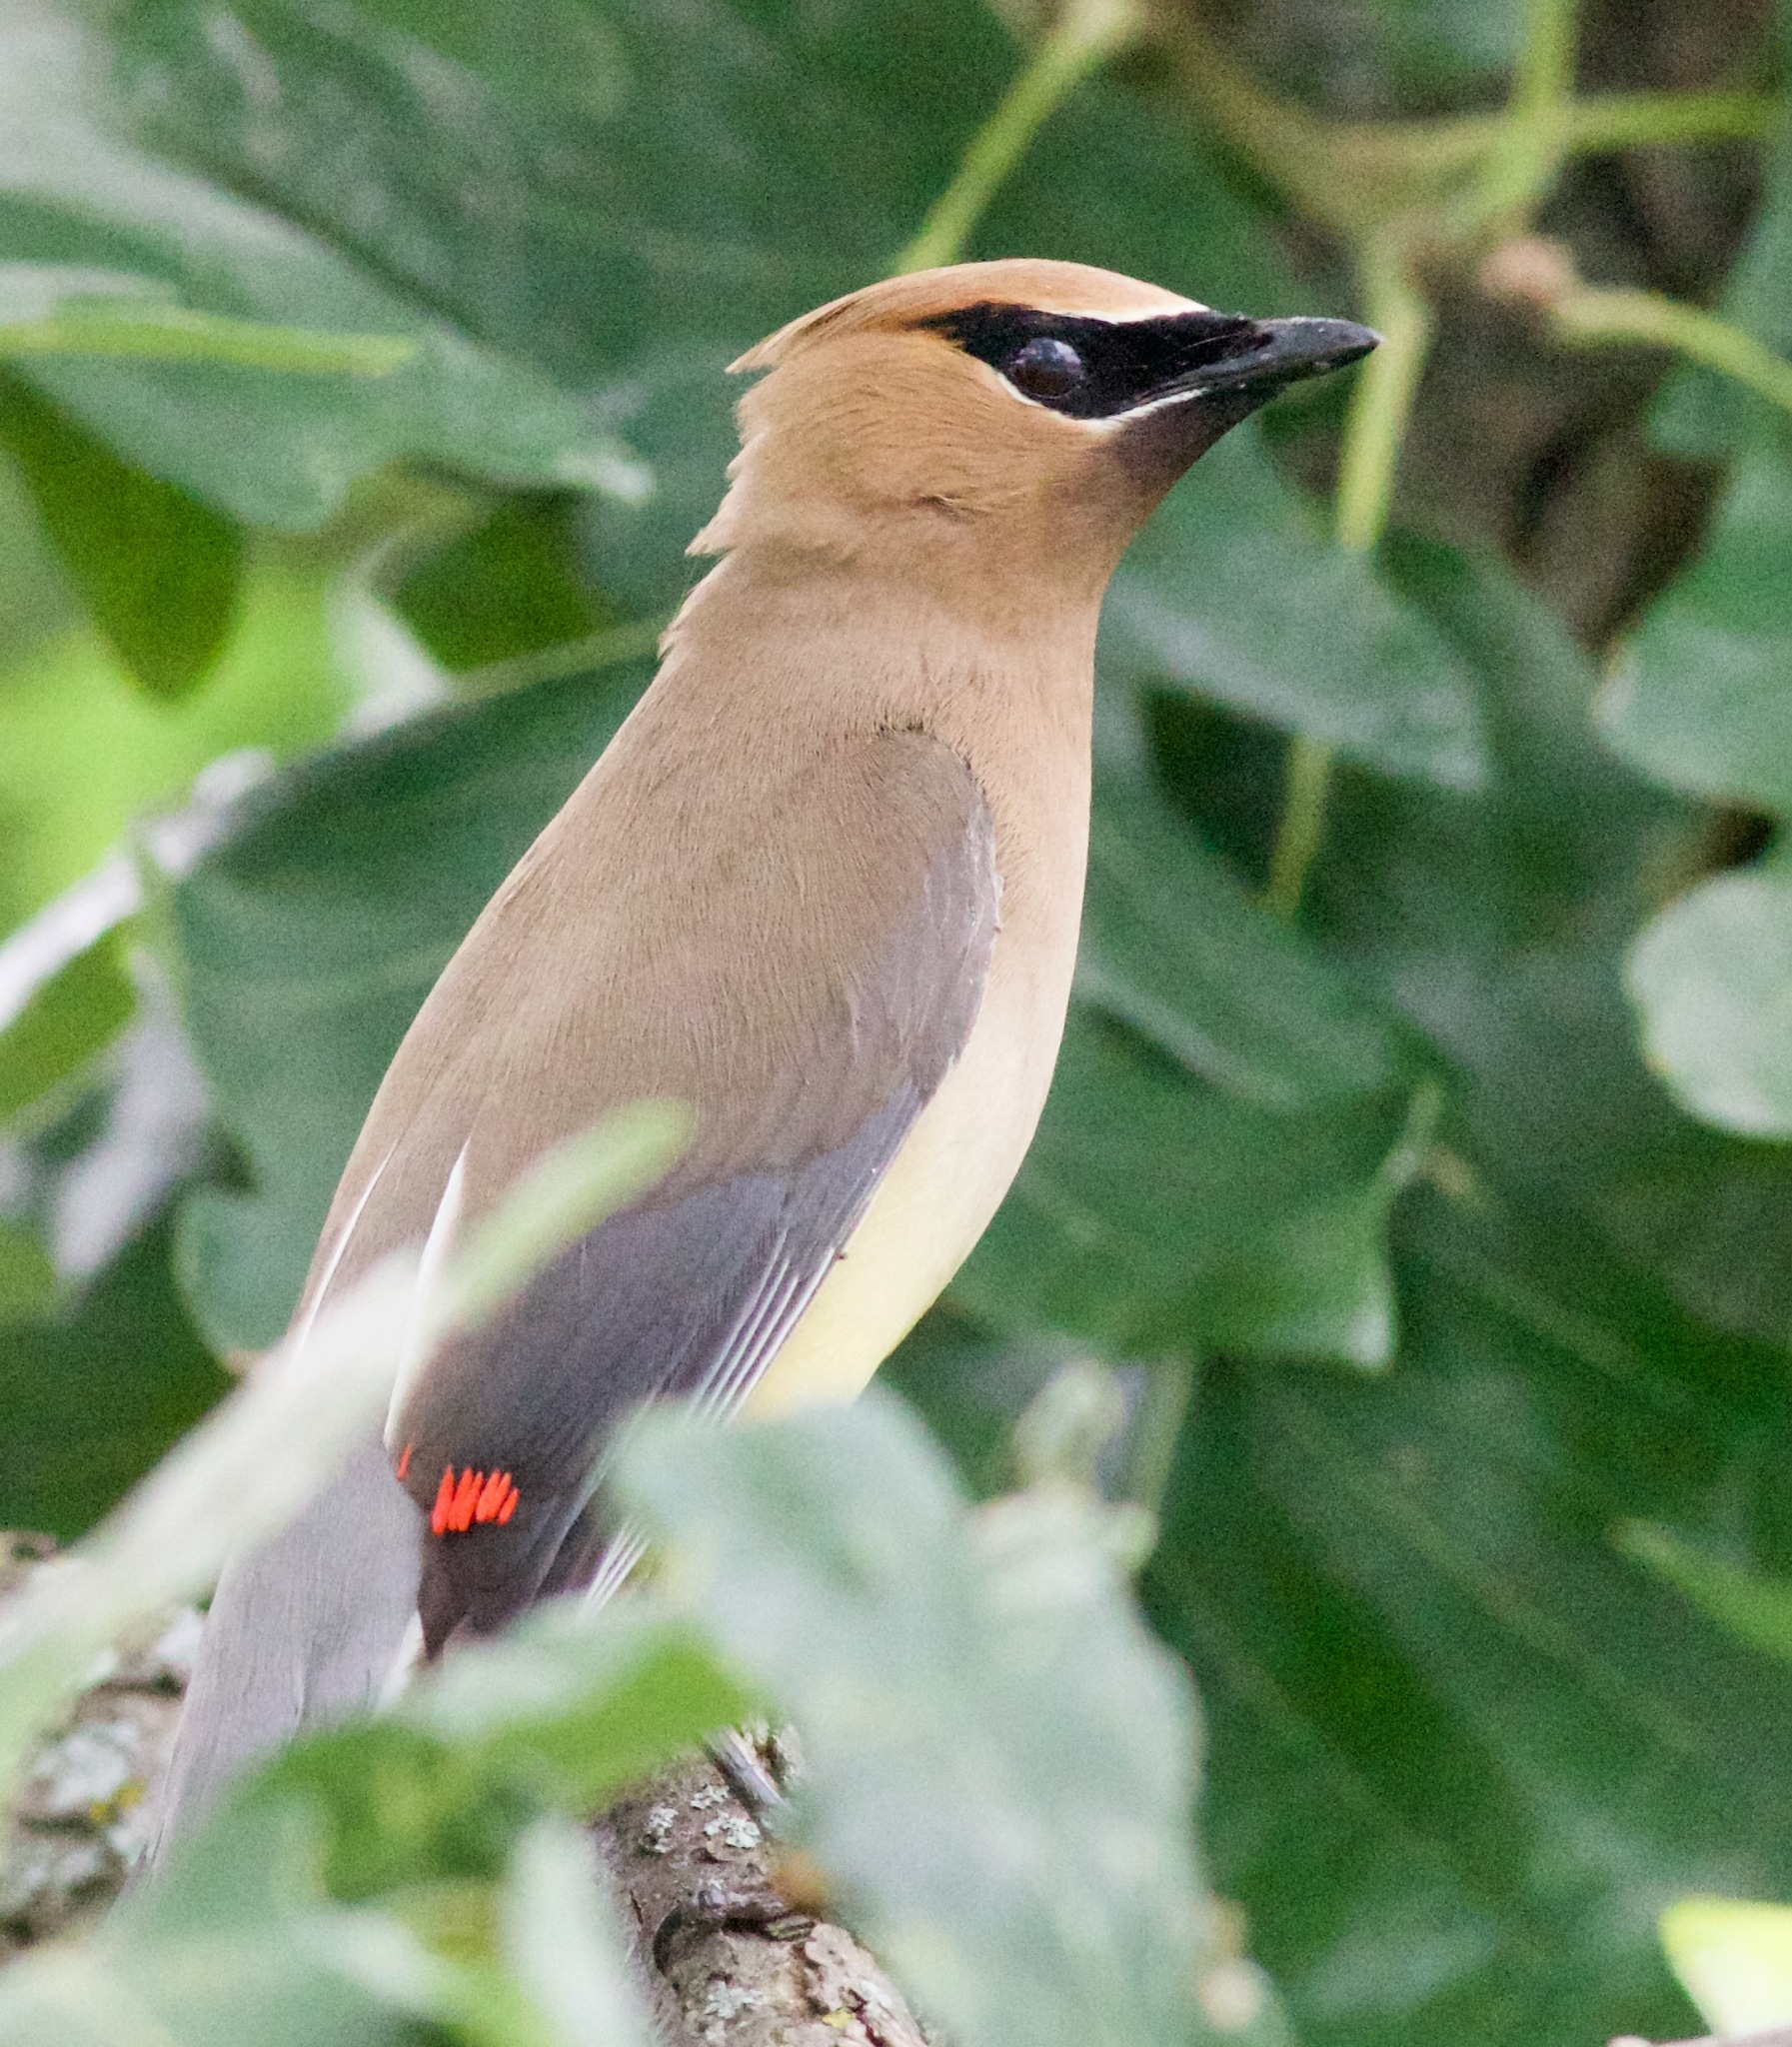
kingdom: Animalia
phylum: Chordata
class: Aves
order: Passeriformes
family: Bombycillidae
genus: Bombycilla
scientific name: Bombycilla cedrorum
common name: Cedar waxwing
